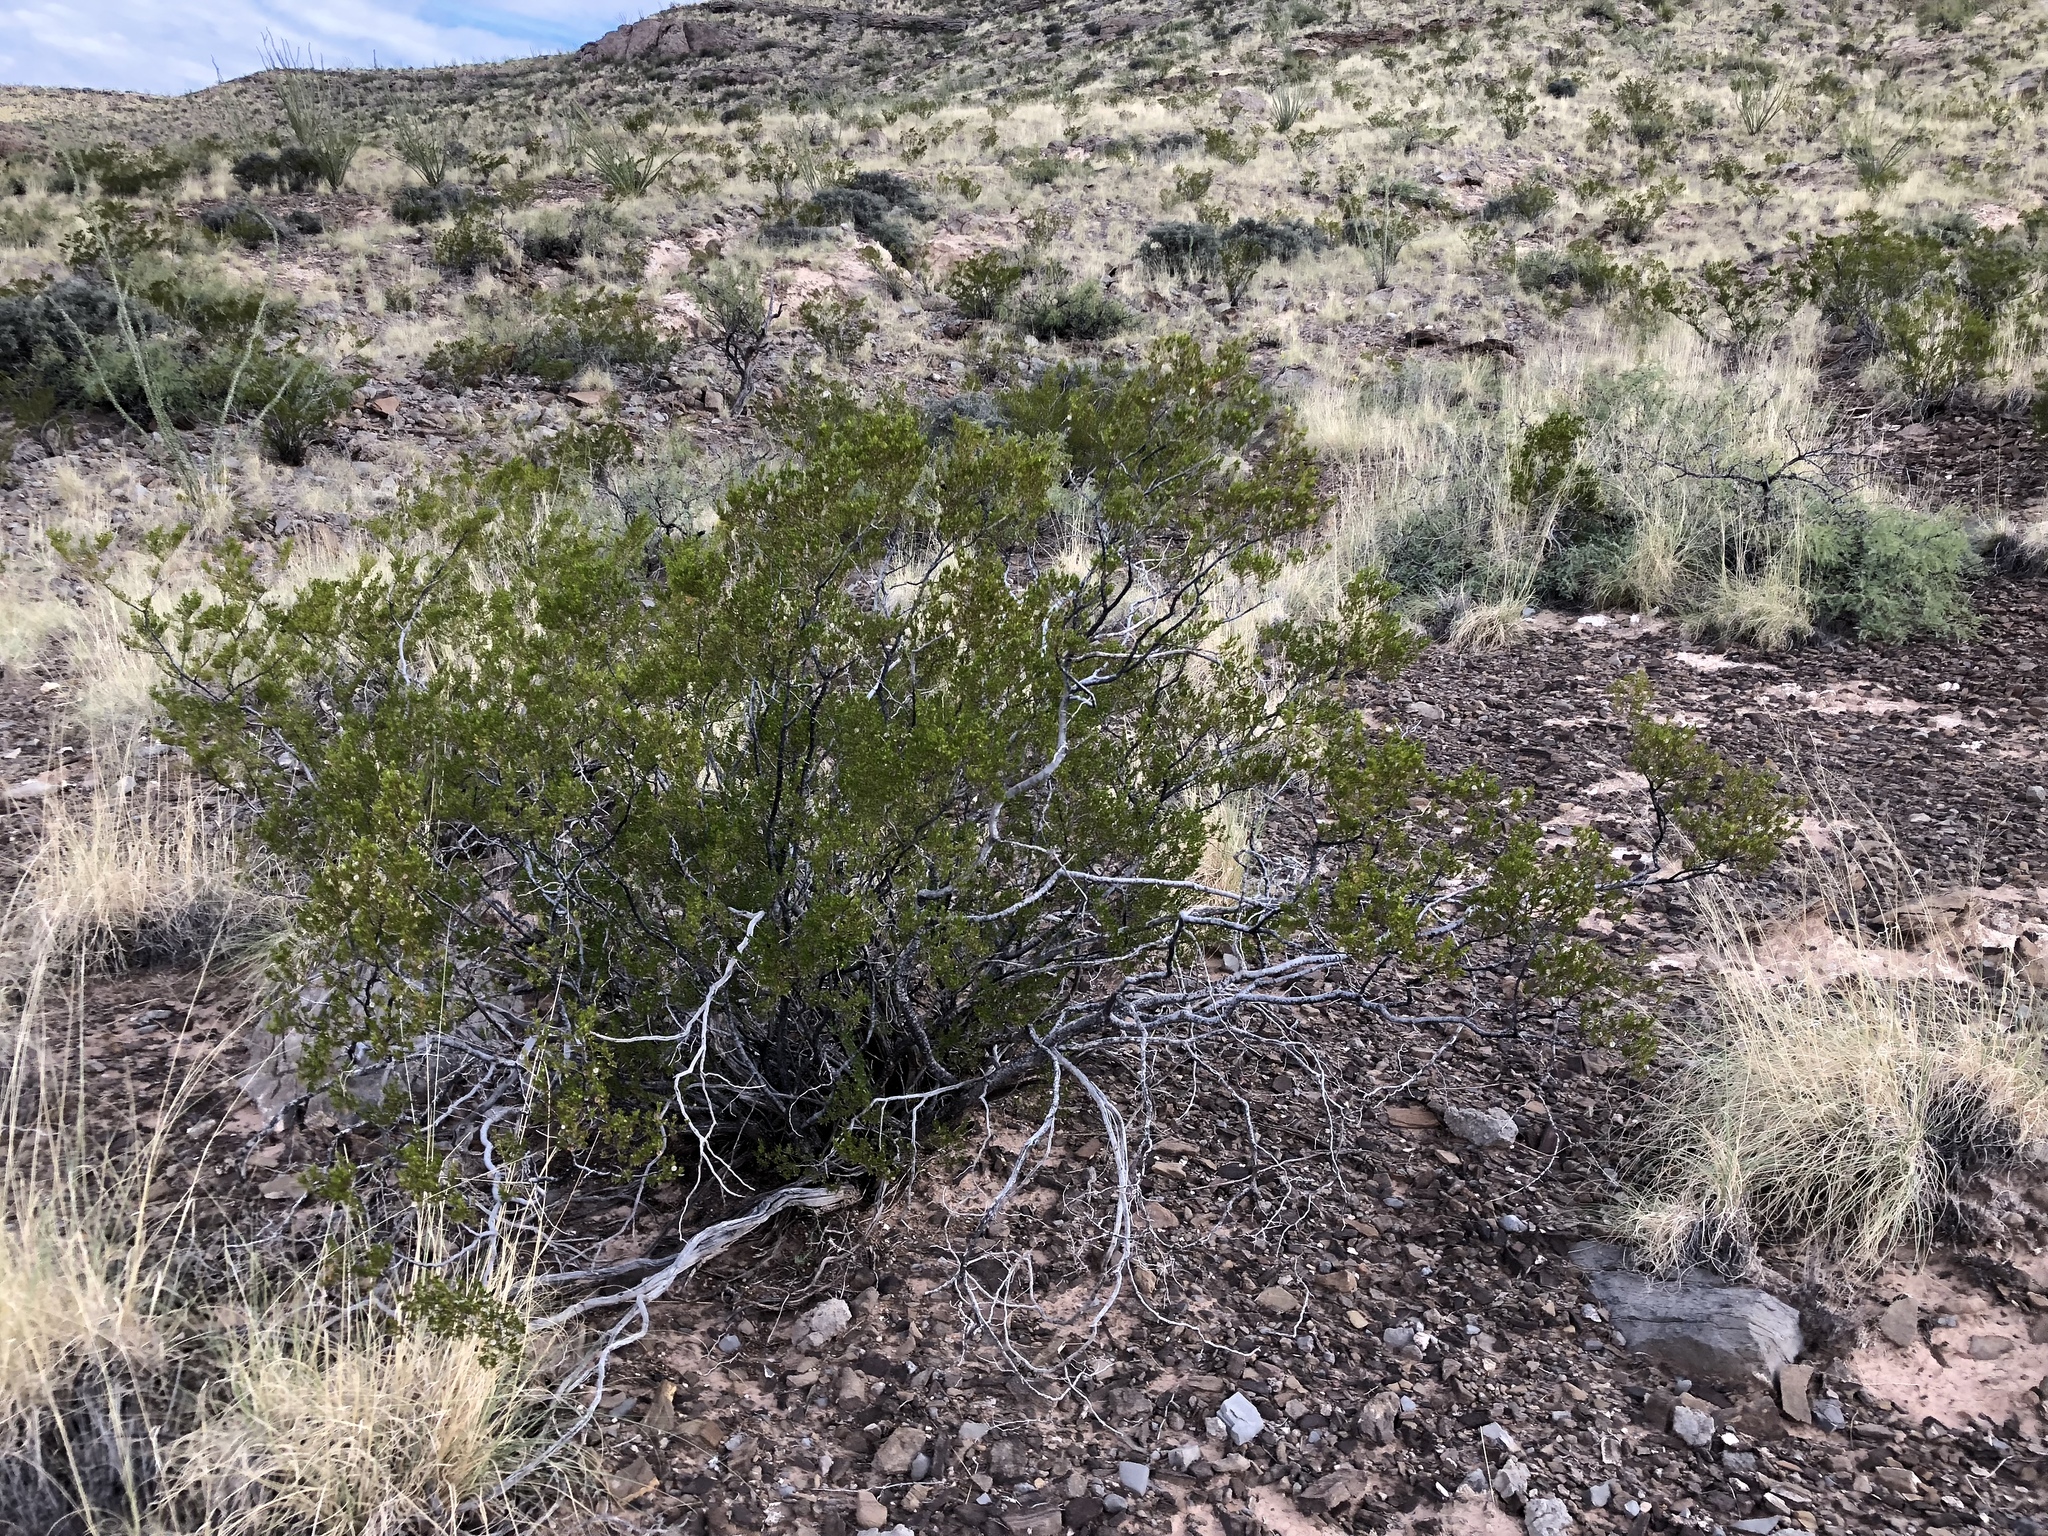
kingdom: Plantae
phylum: Tracheophyta
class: Magnoliopsida
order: Zygophyllales
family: Zygophyllaceae
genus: Larrea
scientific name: Larrea tridentata
